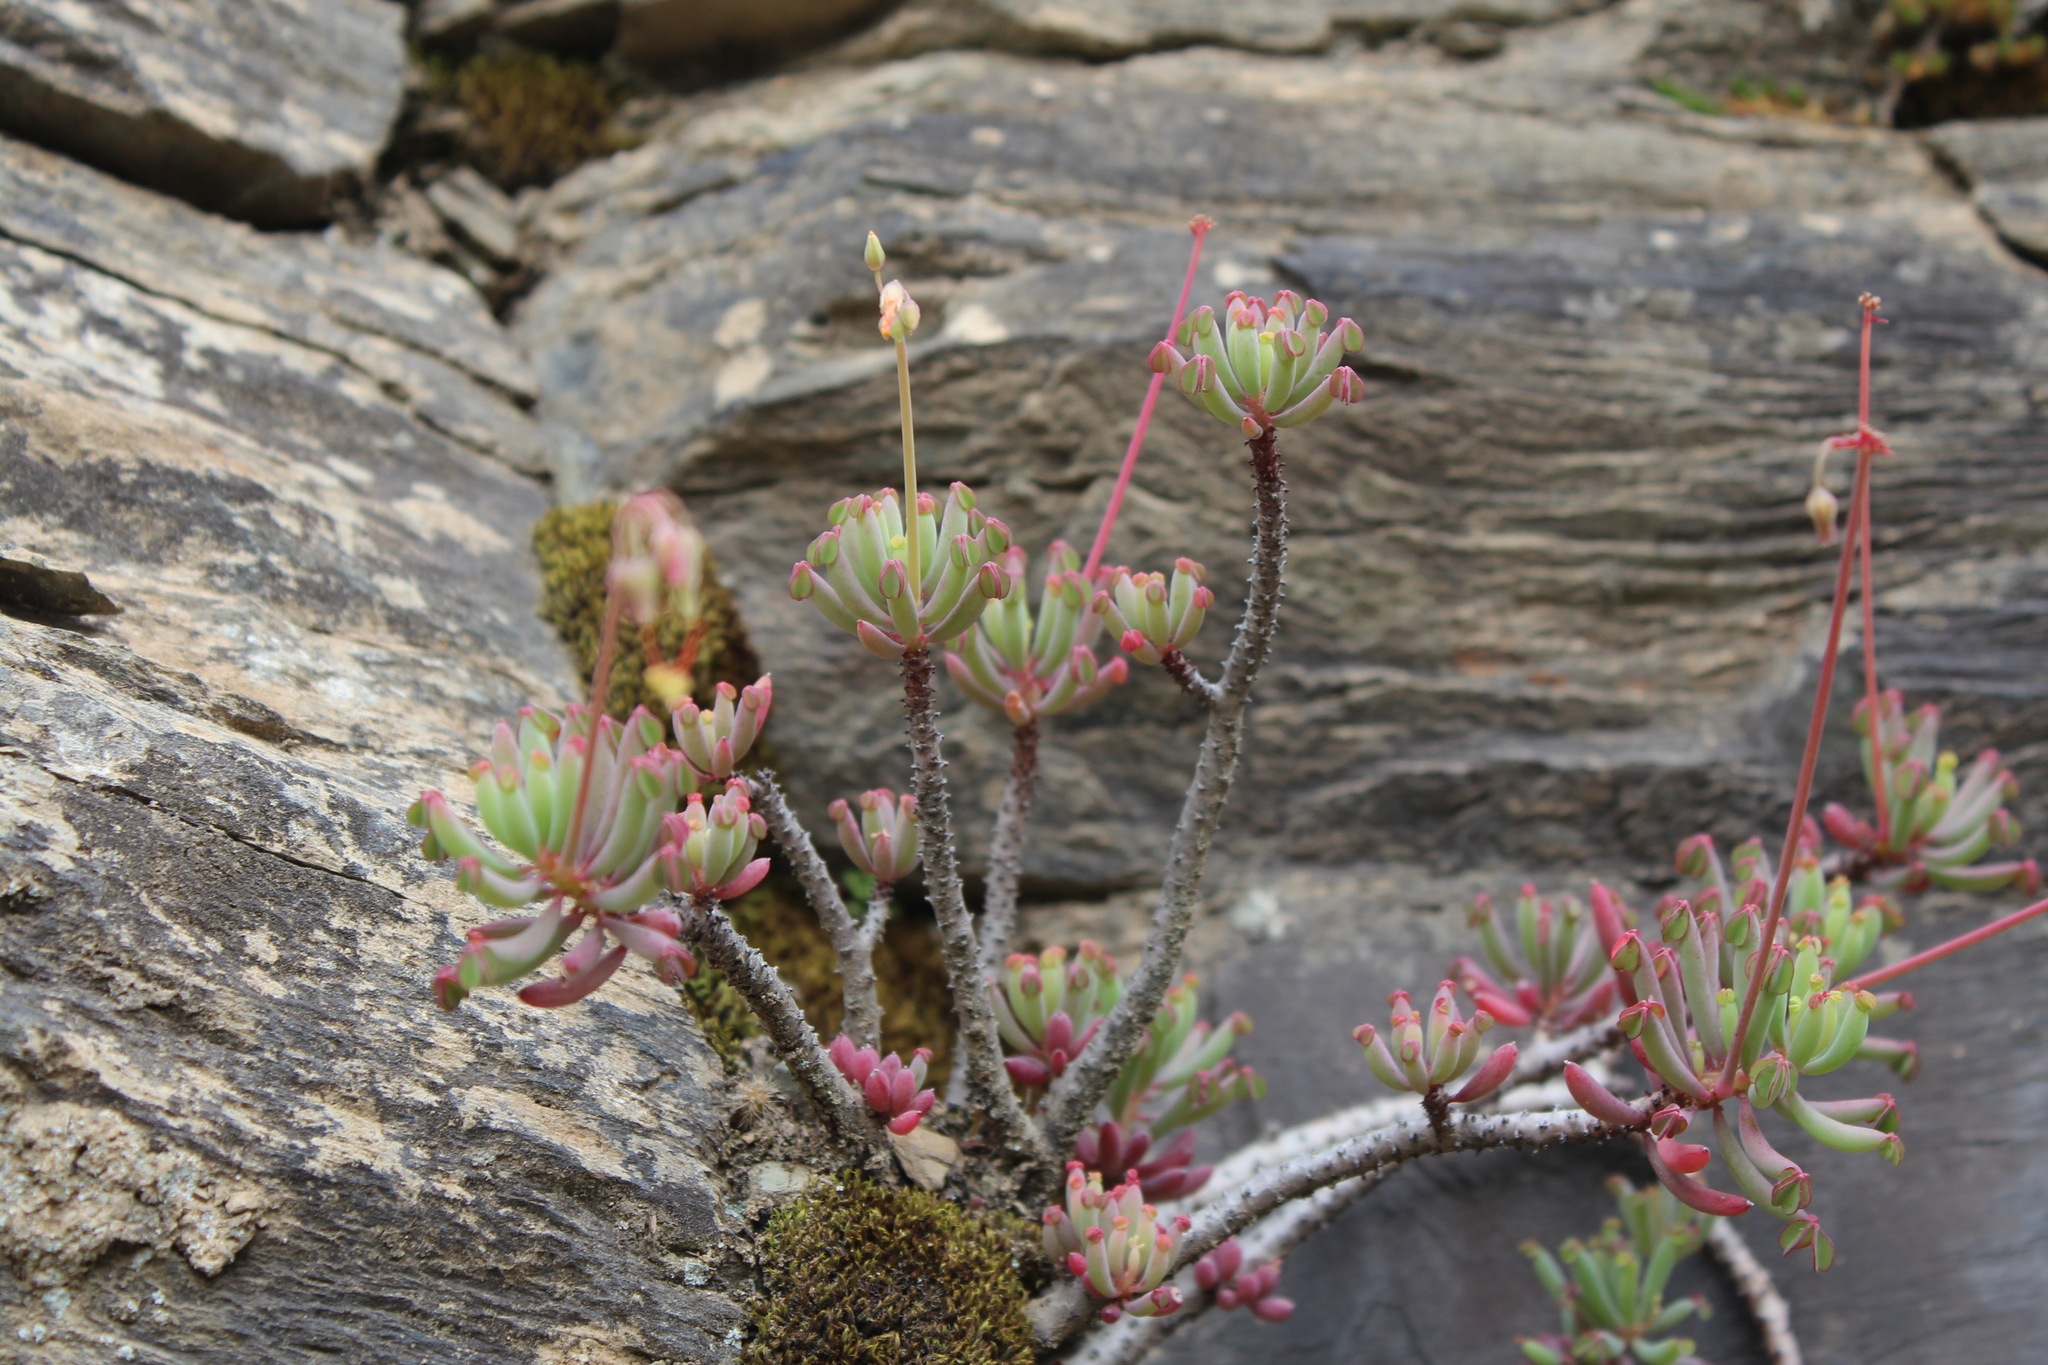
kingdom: Plantae
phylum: Tracheophyta
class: Magnoliopsida
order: Oxalidales
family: Oxalidaceae
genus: Oxalis
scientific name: Oxalis teneriensis
